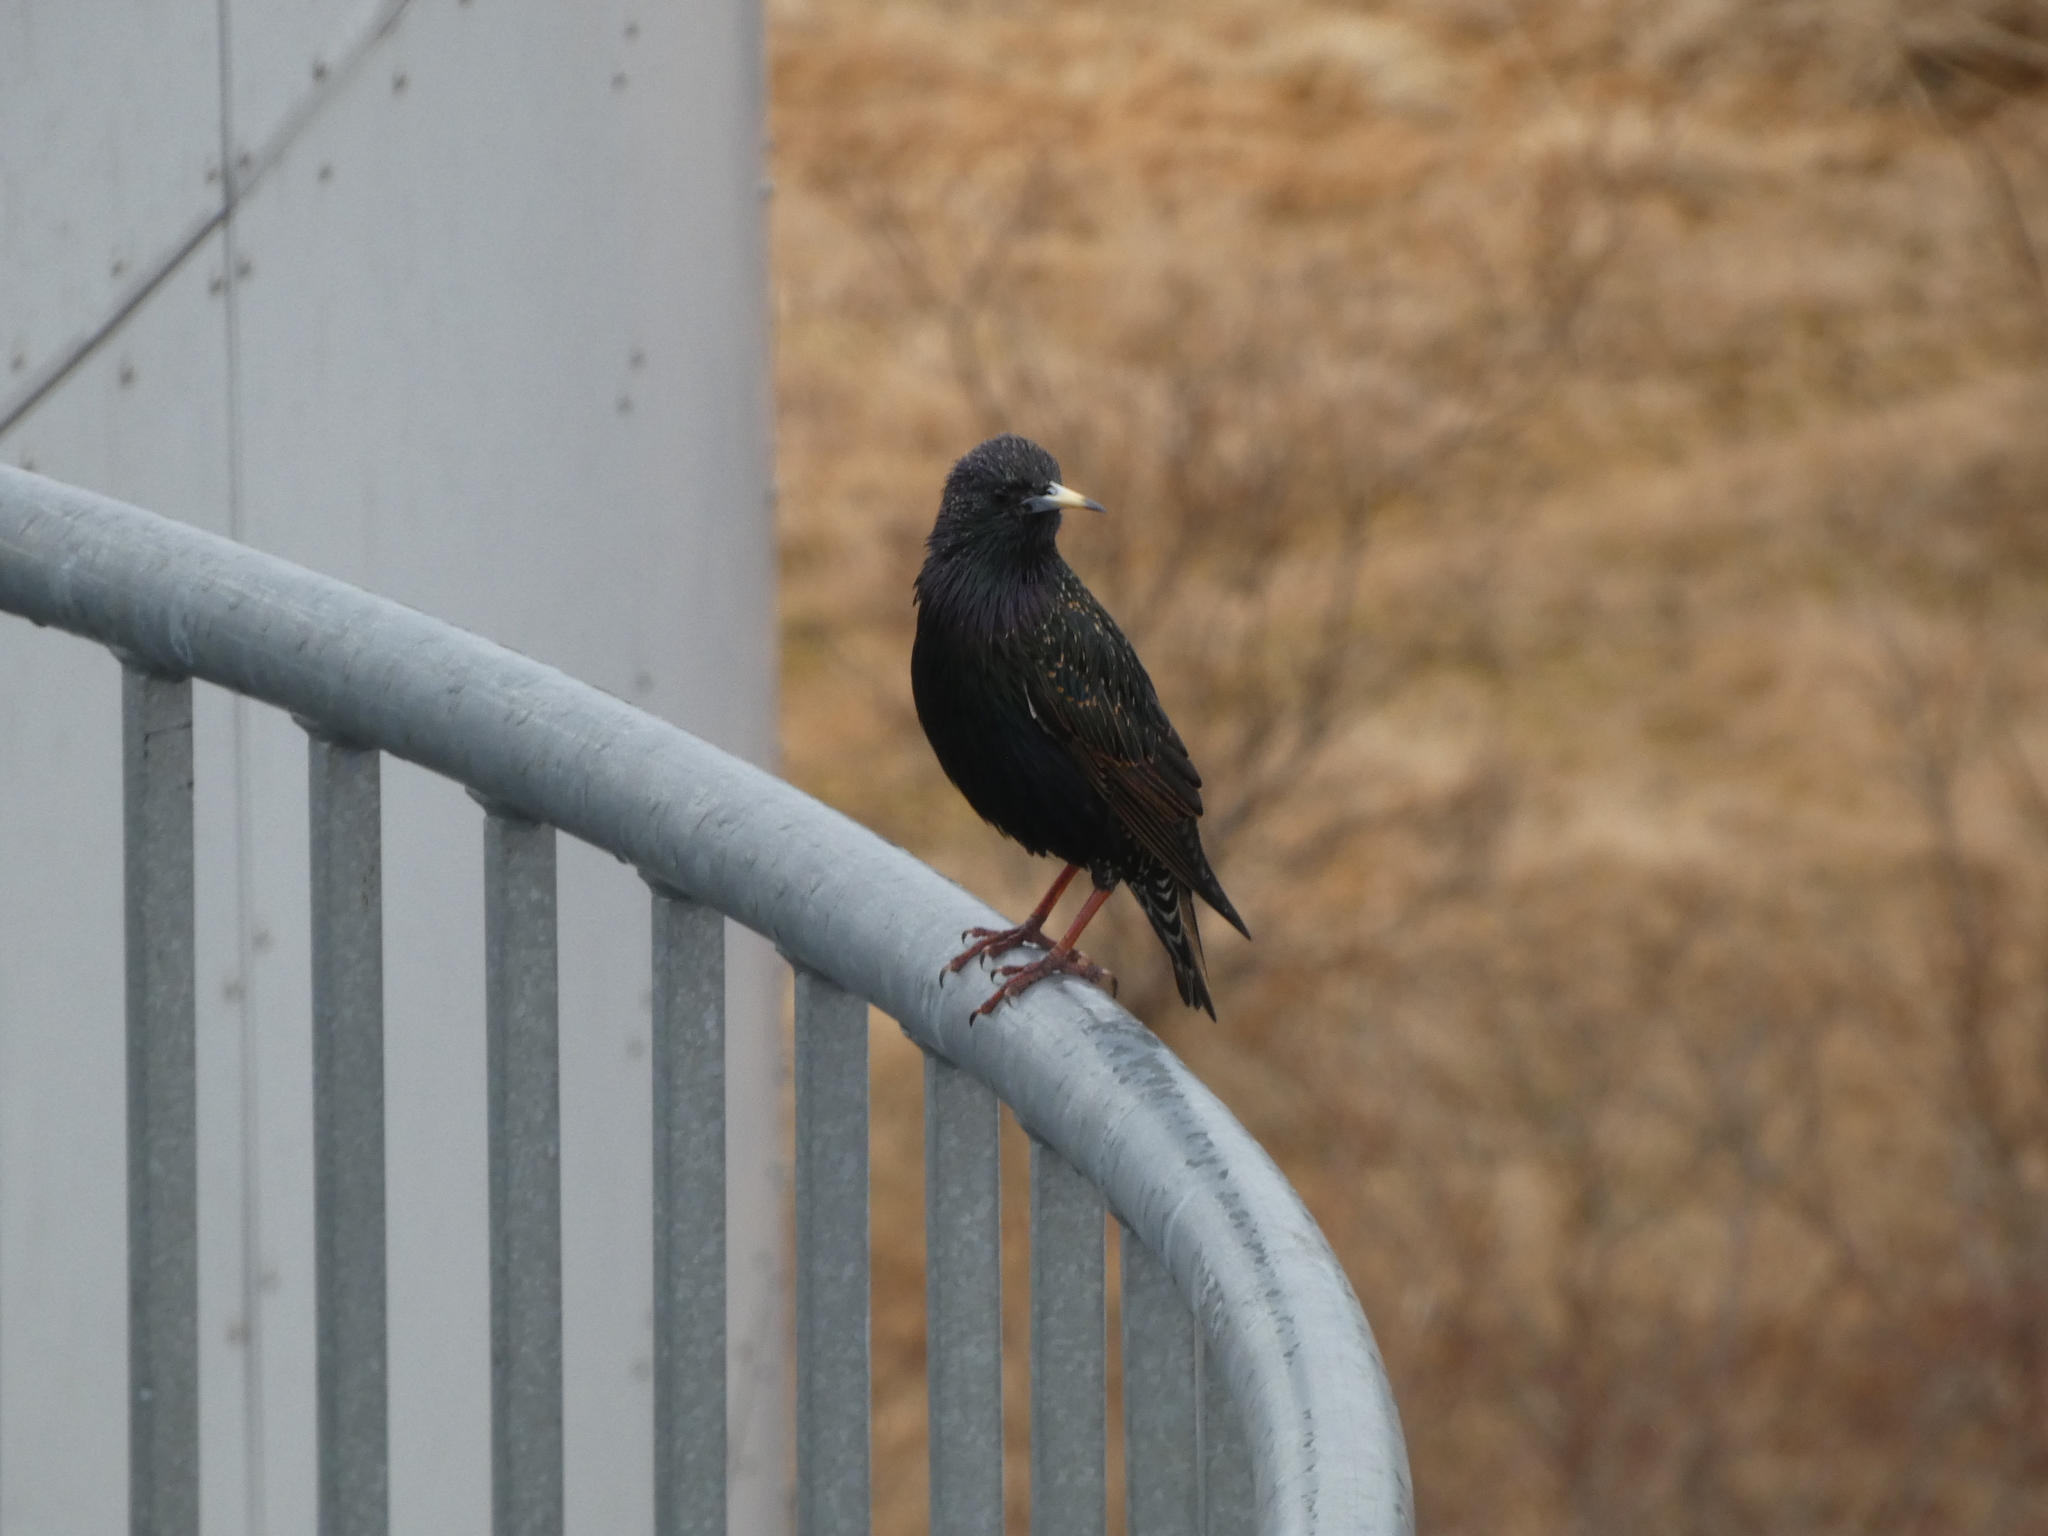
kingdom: Animalia
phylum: Chordata
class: Aves
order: Passeriformes
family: Sturnidae
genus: Sturnus
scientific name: Sturnus vulgaris
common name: Common starling
